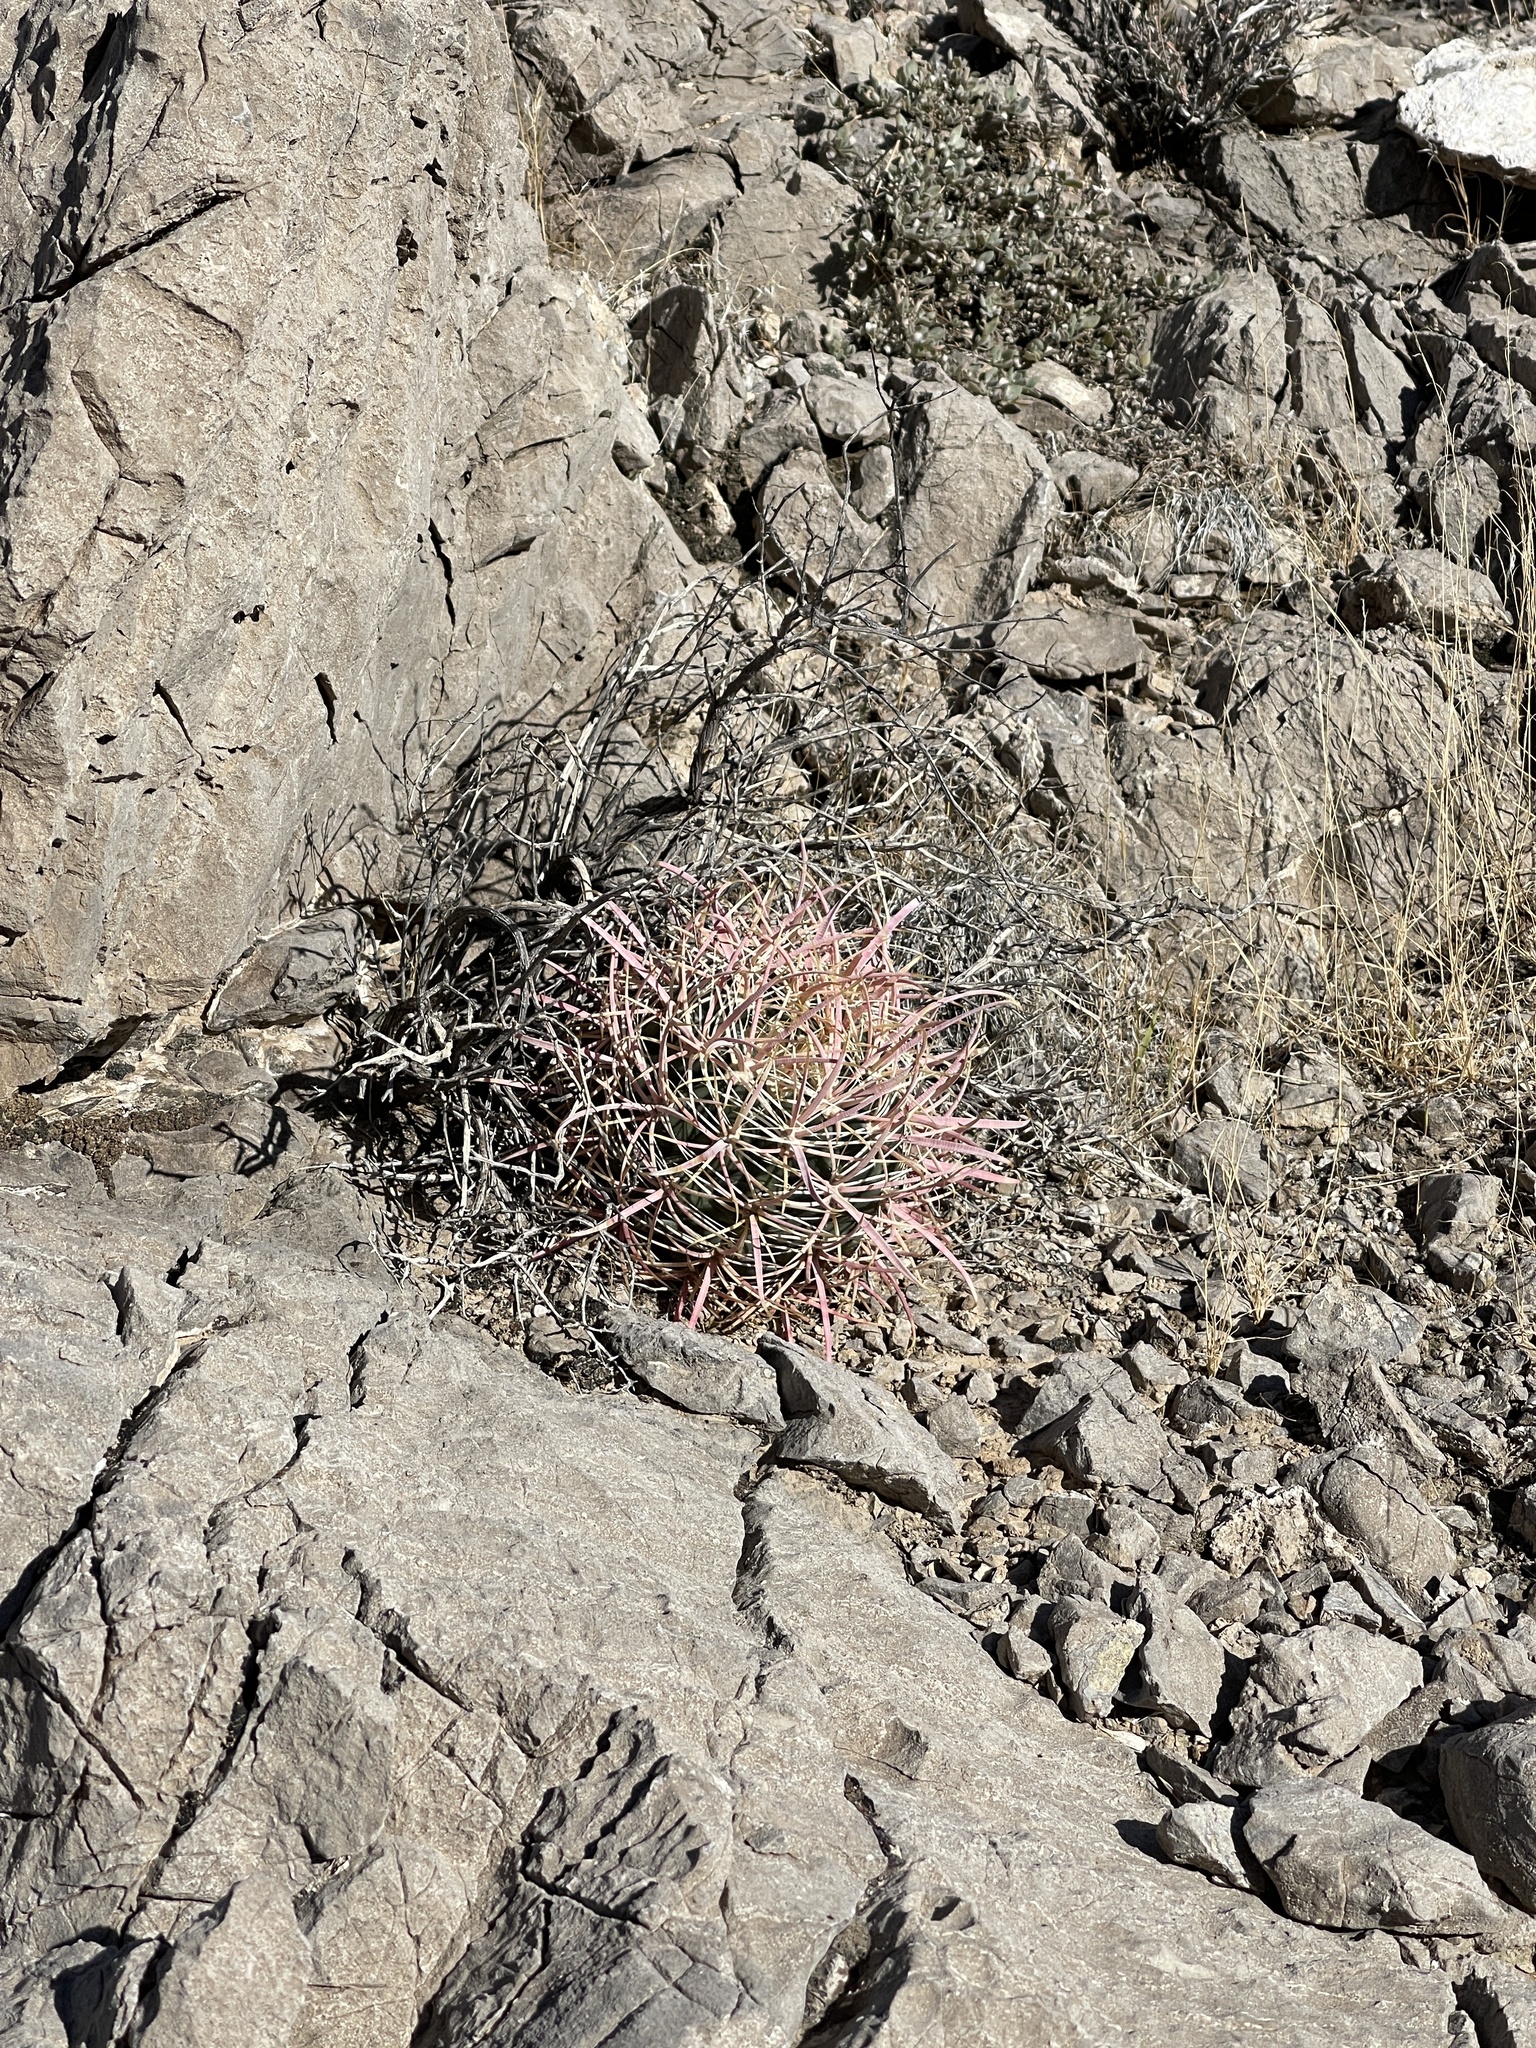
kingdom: Plantae
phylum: Tracheophyta
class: Magnoliopsida
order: Caryophyllales
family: Cactaceae
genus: Ferocactus
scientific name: Ferocactus cylindraceus
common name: California barrel cactus
